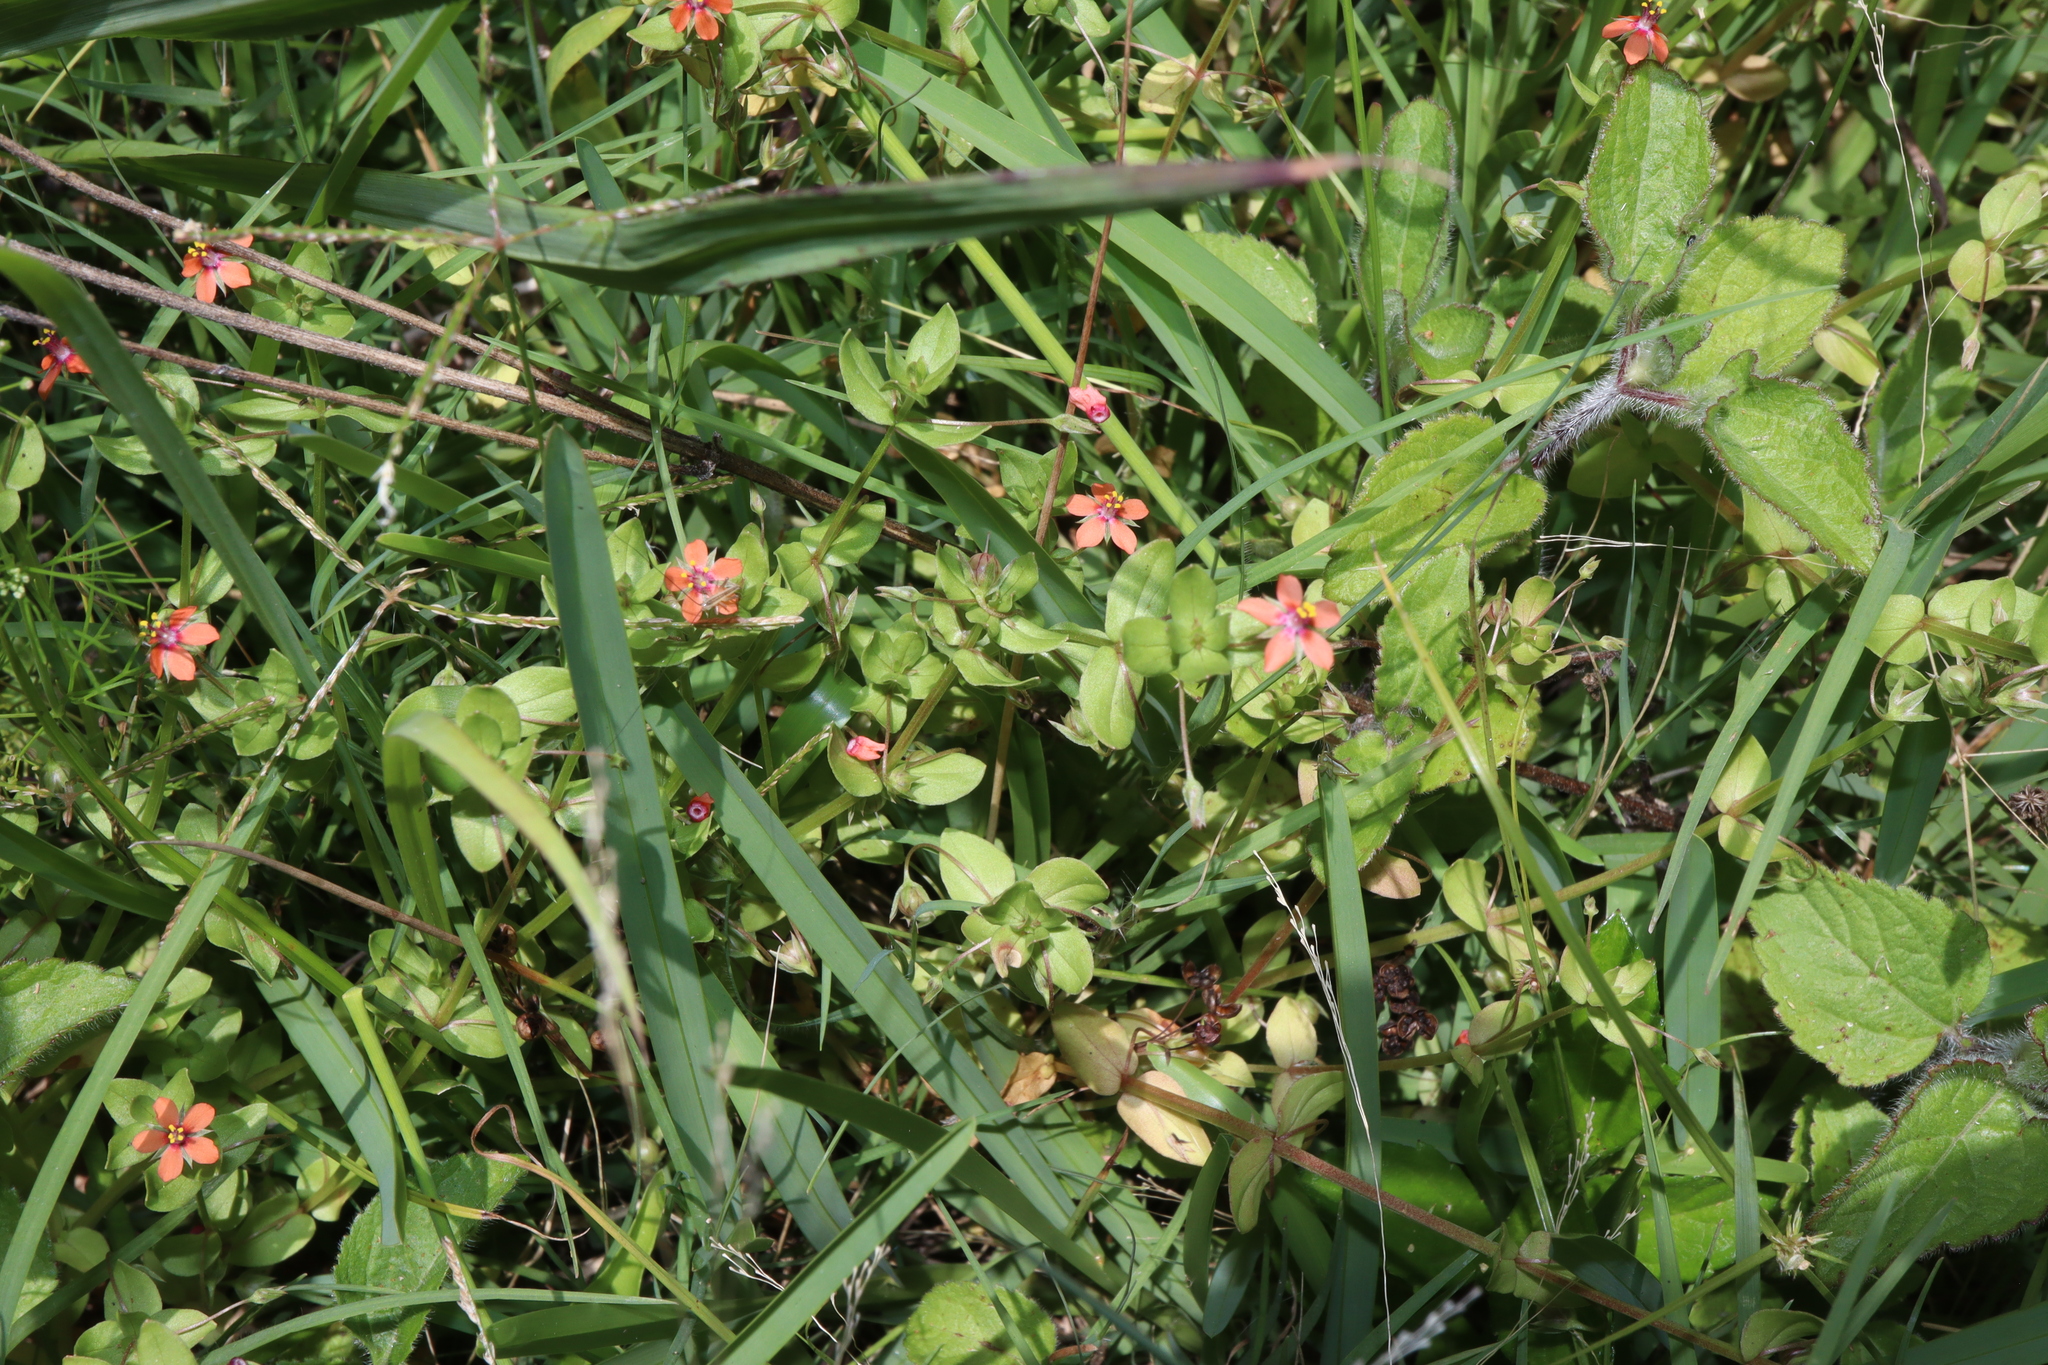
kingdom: Plantae
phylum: Tracheophyta
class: Magnoliopsida
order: Ericales
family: Primulaceae
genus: Lysimachia
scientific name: Lysimachia arvensis
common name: Scarlet pimpernel
